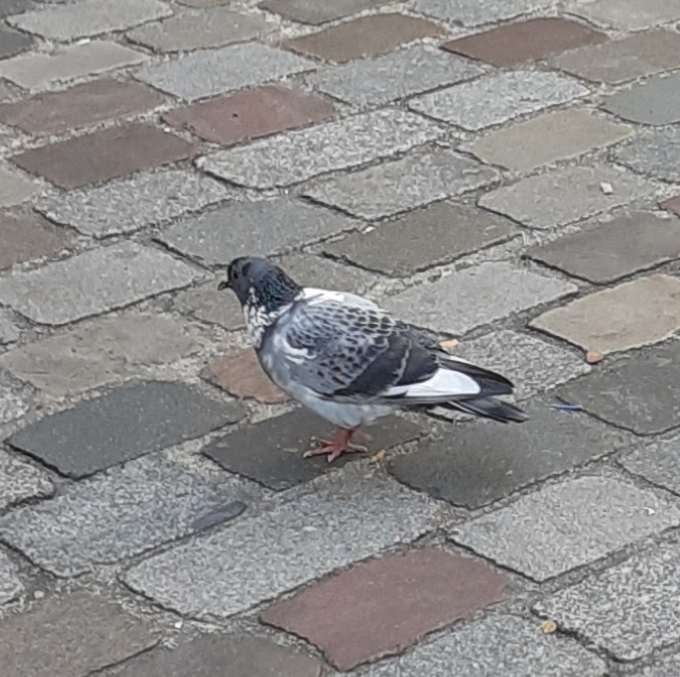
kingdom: Animalia
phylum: Chordata
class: Aves
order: Columbiformes
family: Columbidae
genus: Columba
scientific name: Columba livia
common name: Rock pigeon
